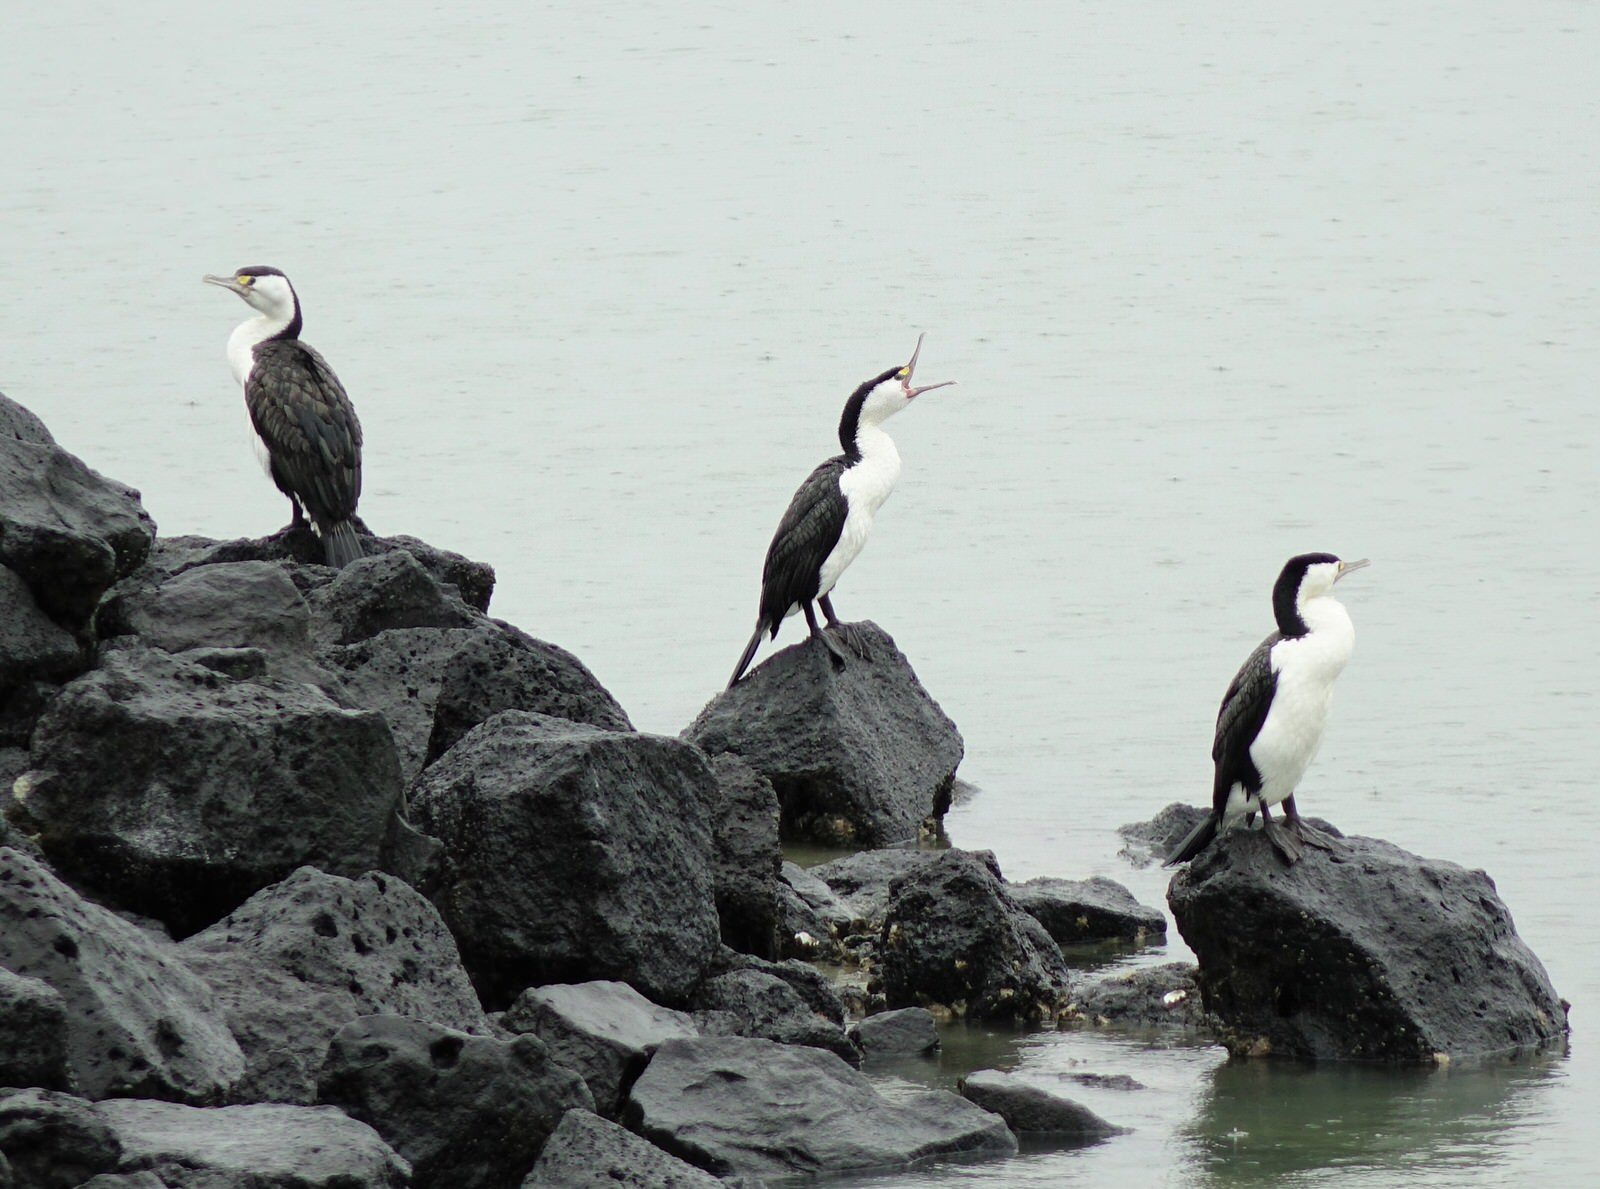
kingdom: Animalia
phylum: Chordata
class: Aves
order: Suliformes
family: Phalacrocoracidae
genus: Phalacrocorax
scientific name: Phalacrocorax varius
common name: Pied cormorant
